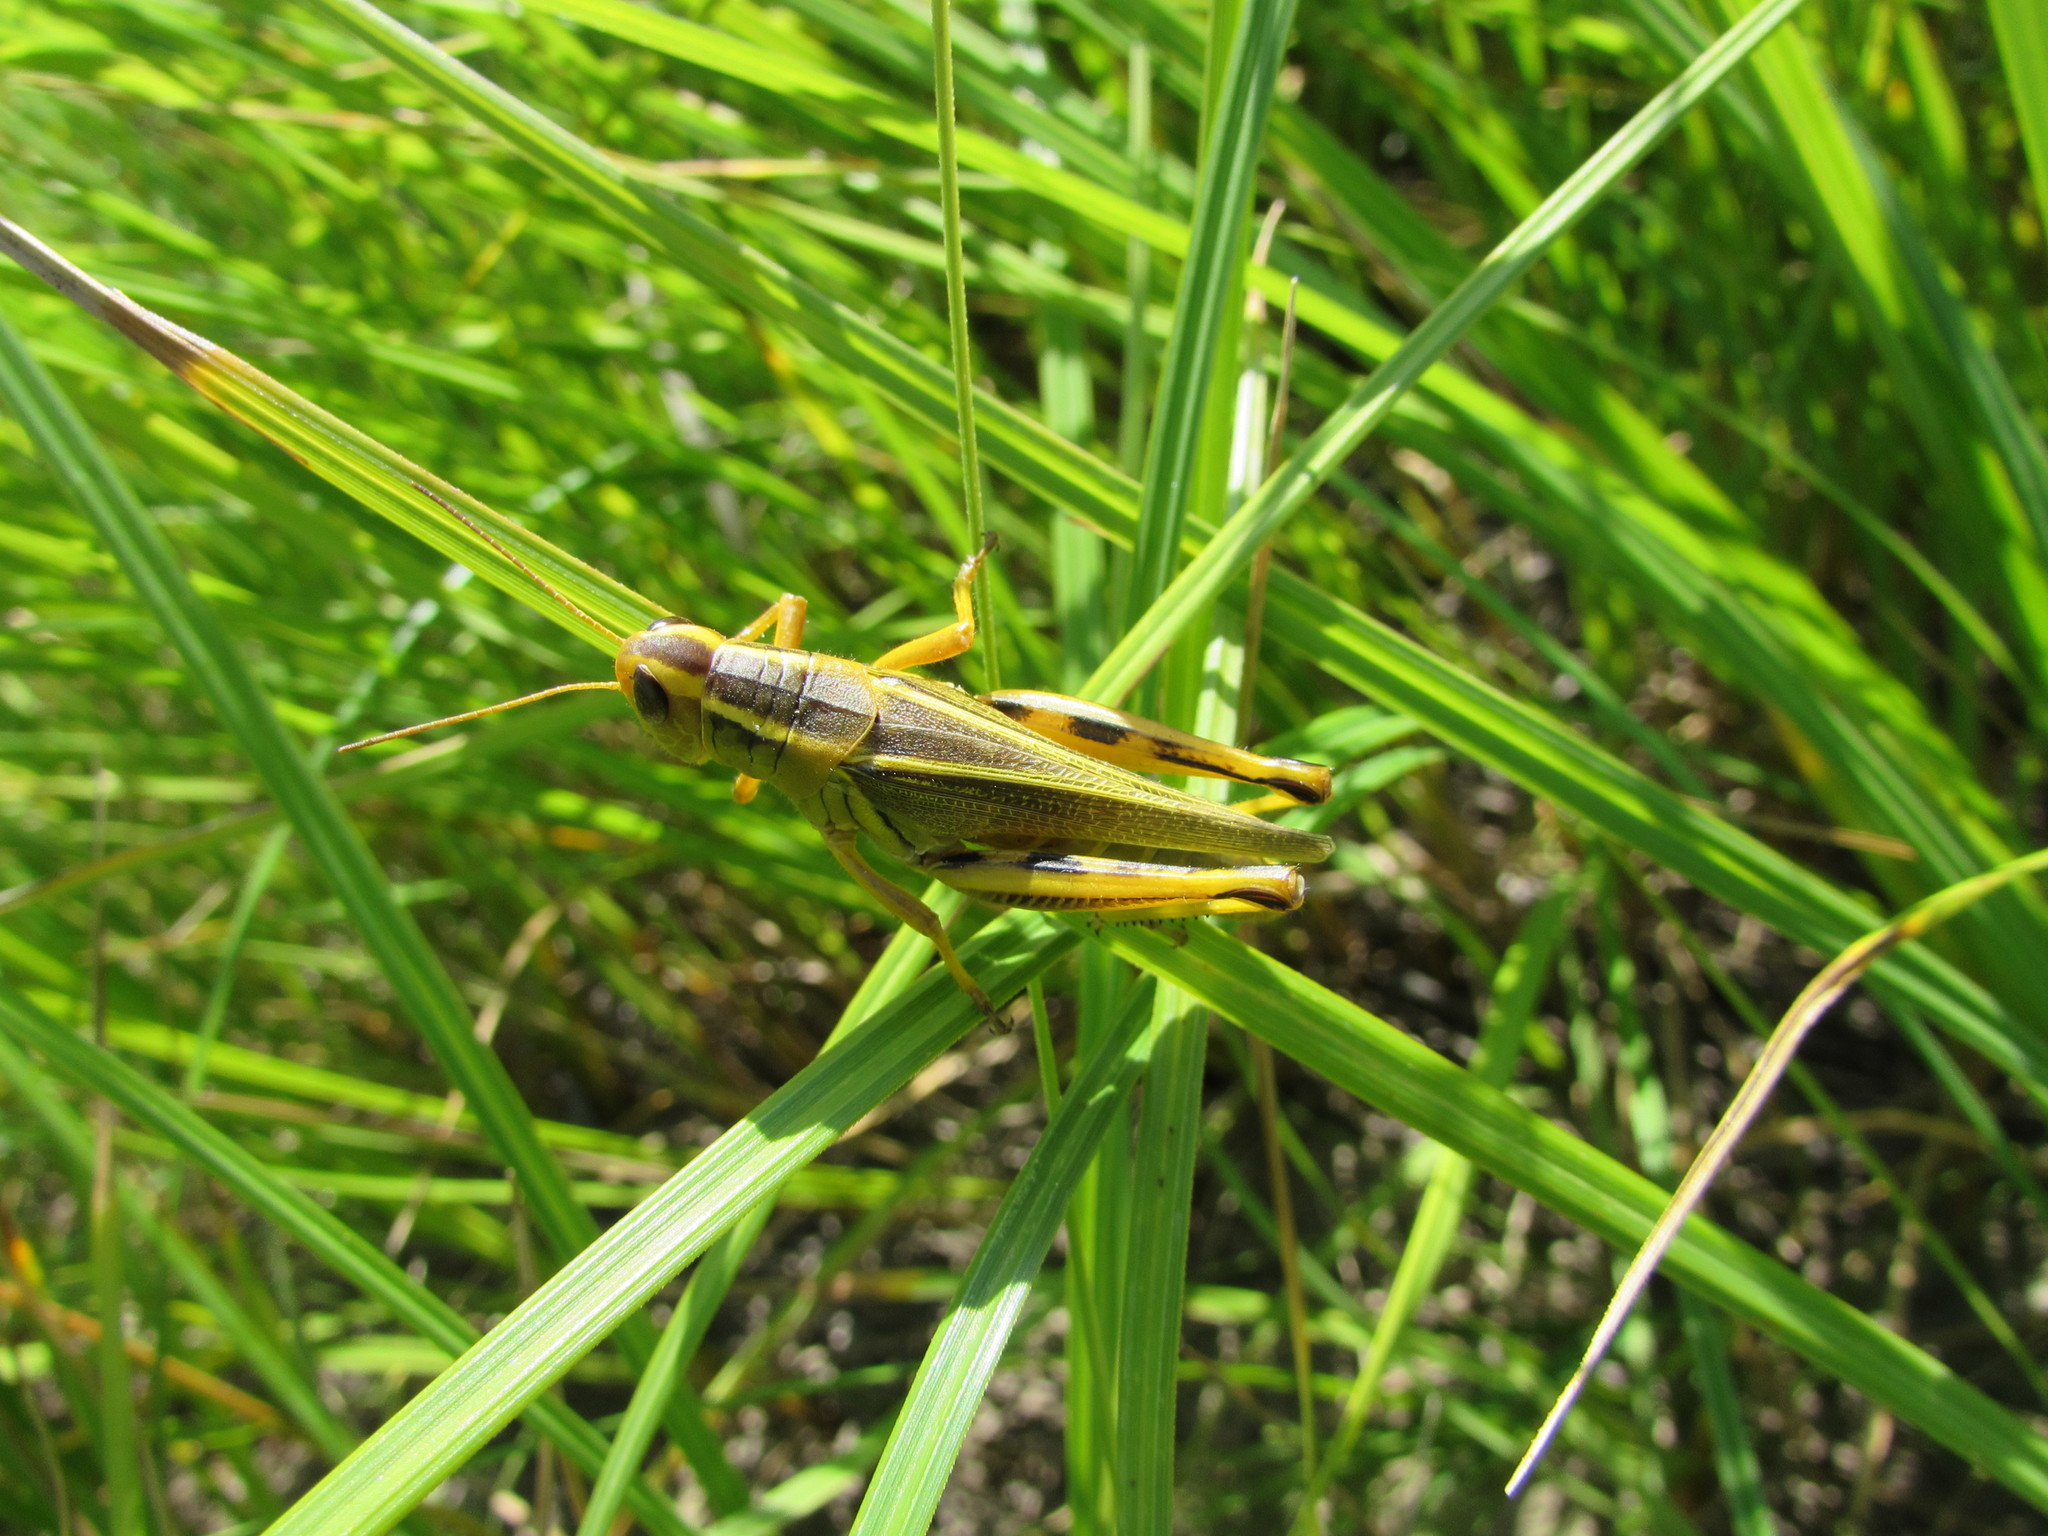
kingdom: Animalia
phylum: Arthropoda
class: Insecta
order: Orthoptera
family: Acrididae
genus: Melanoplus
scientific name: Melanoplus bivittatus
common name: Two-striped grasshopper
